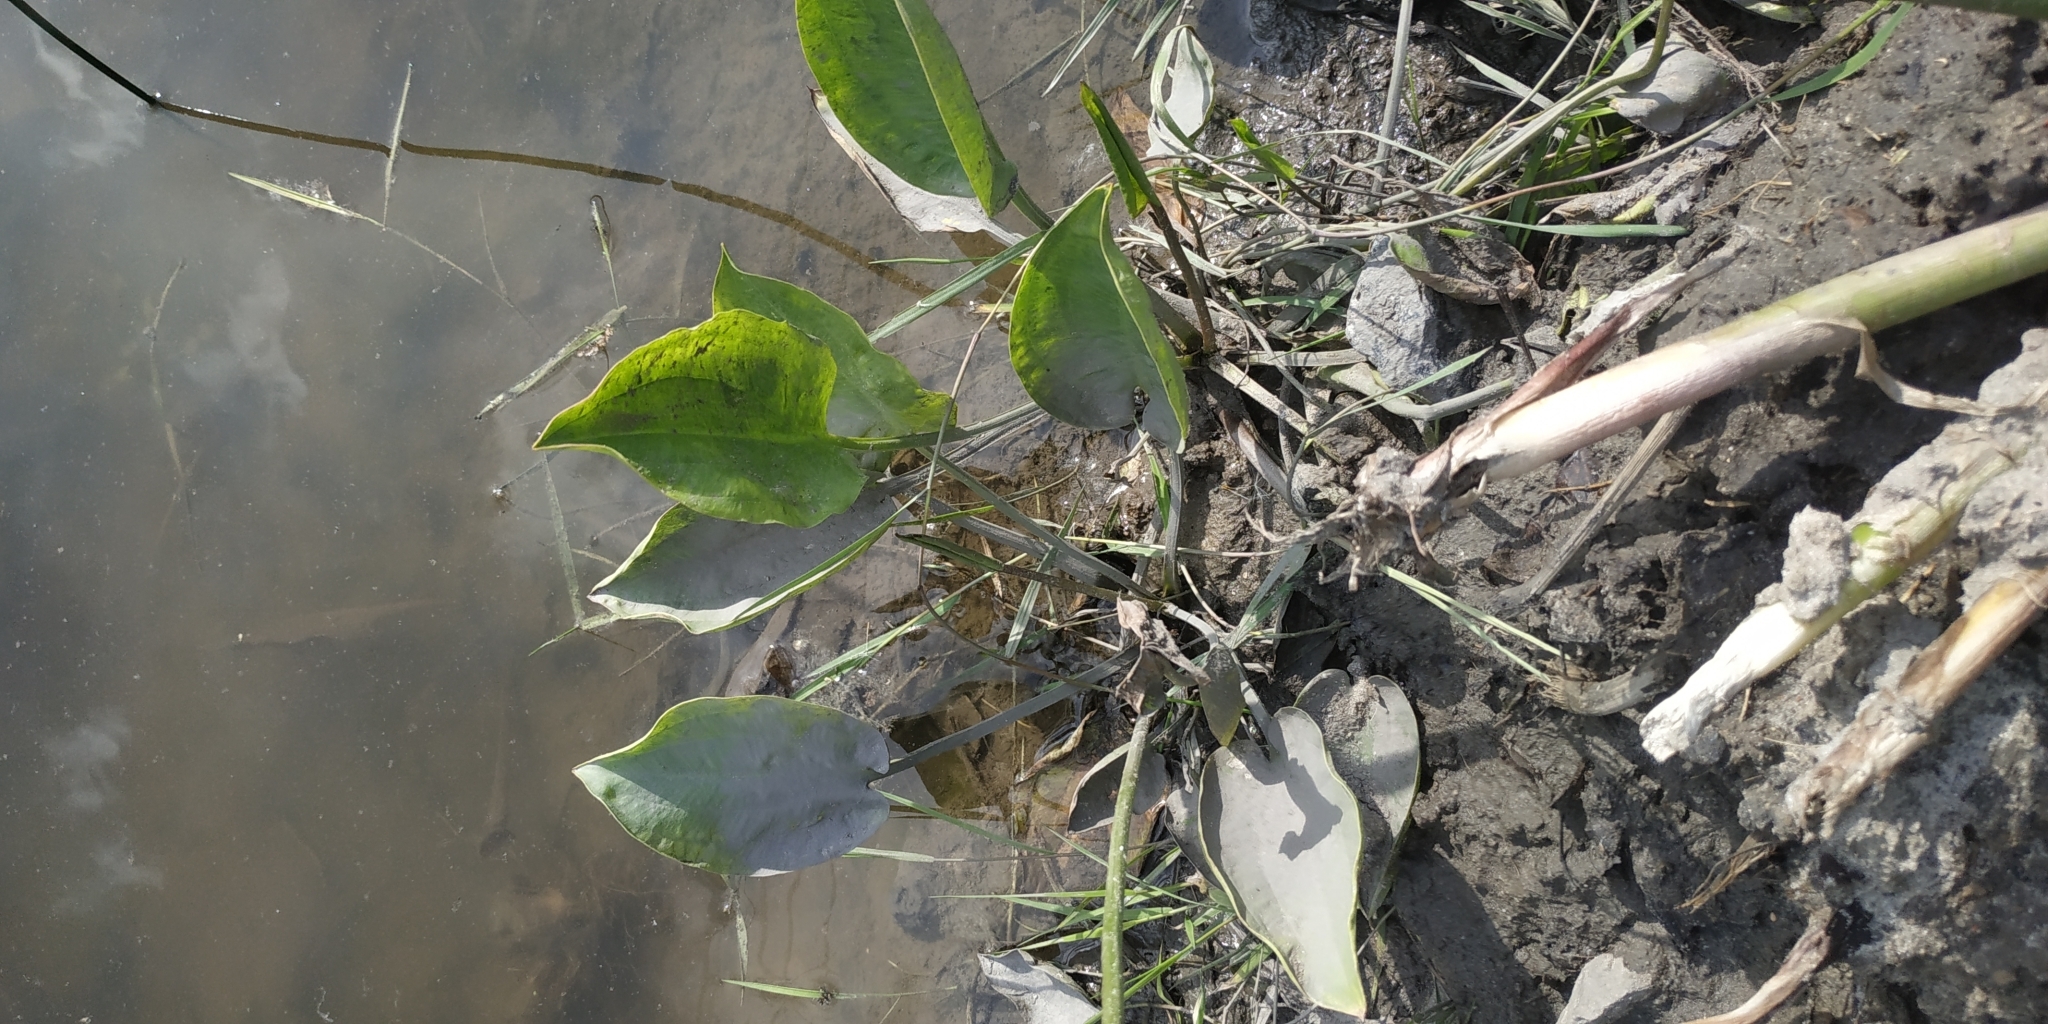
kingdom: Plantae
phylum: Tracheophyta
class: Liliopsida
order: Alismatales
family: Alismataceae
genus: Alisma
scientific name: Alisma plantago-aquatica
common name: Water-plantain
